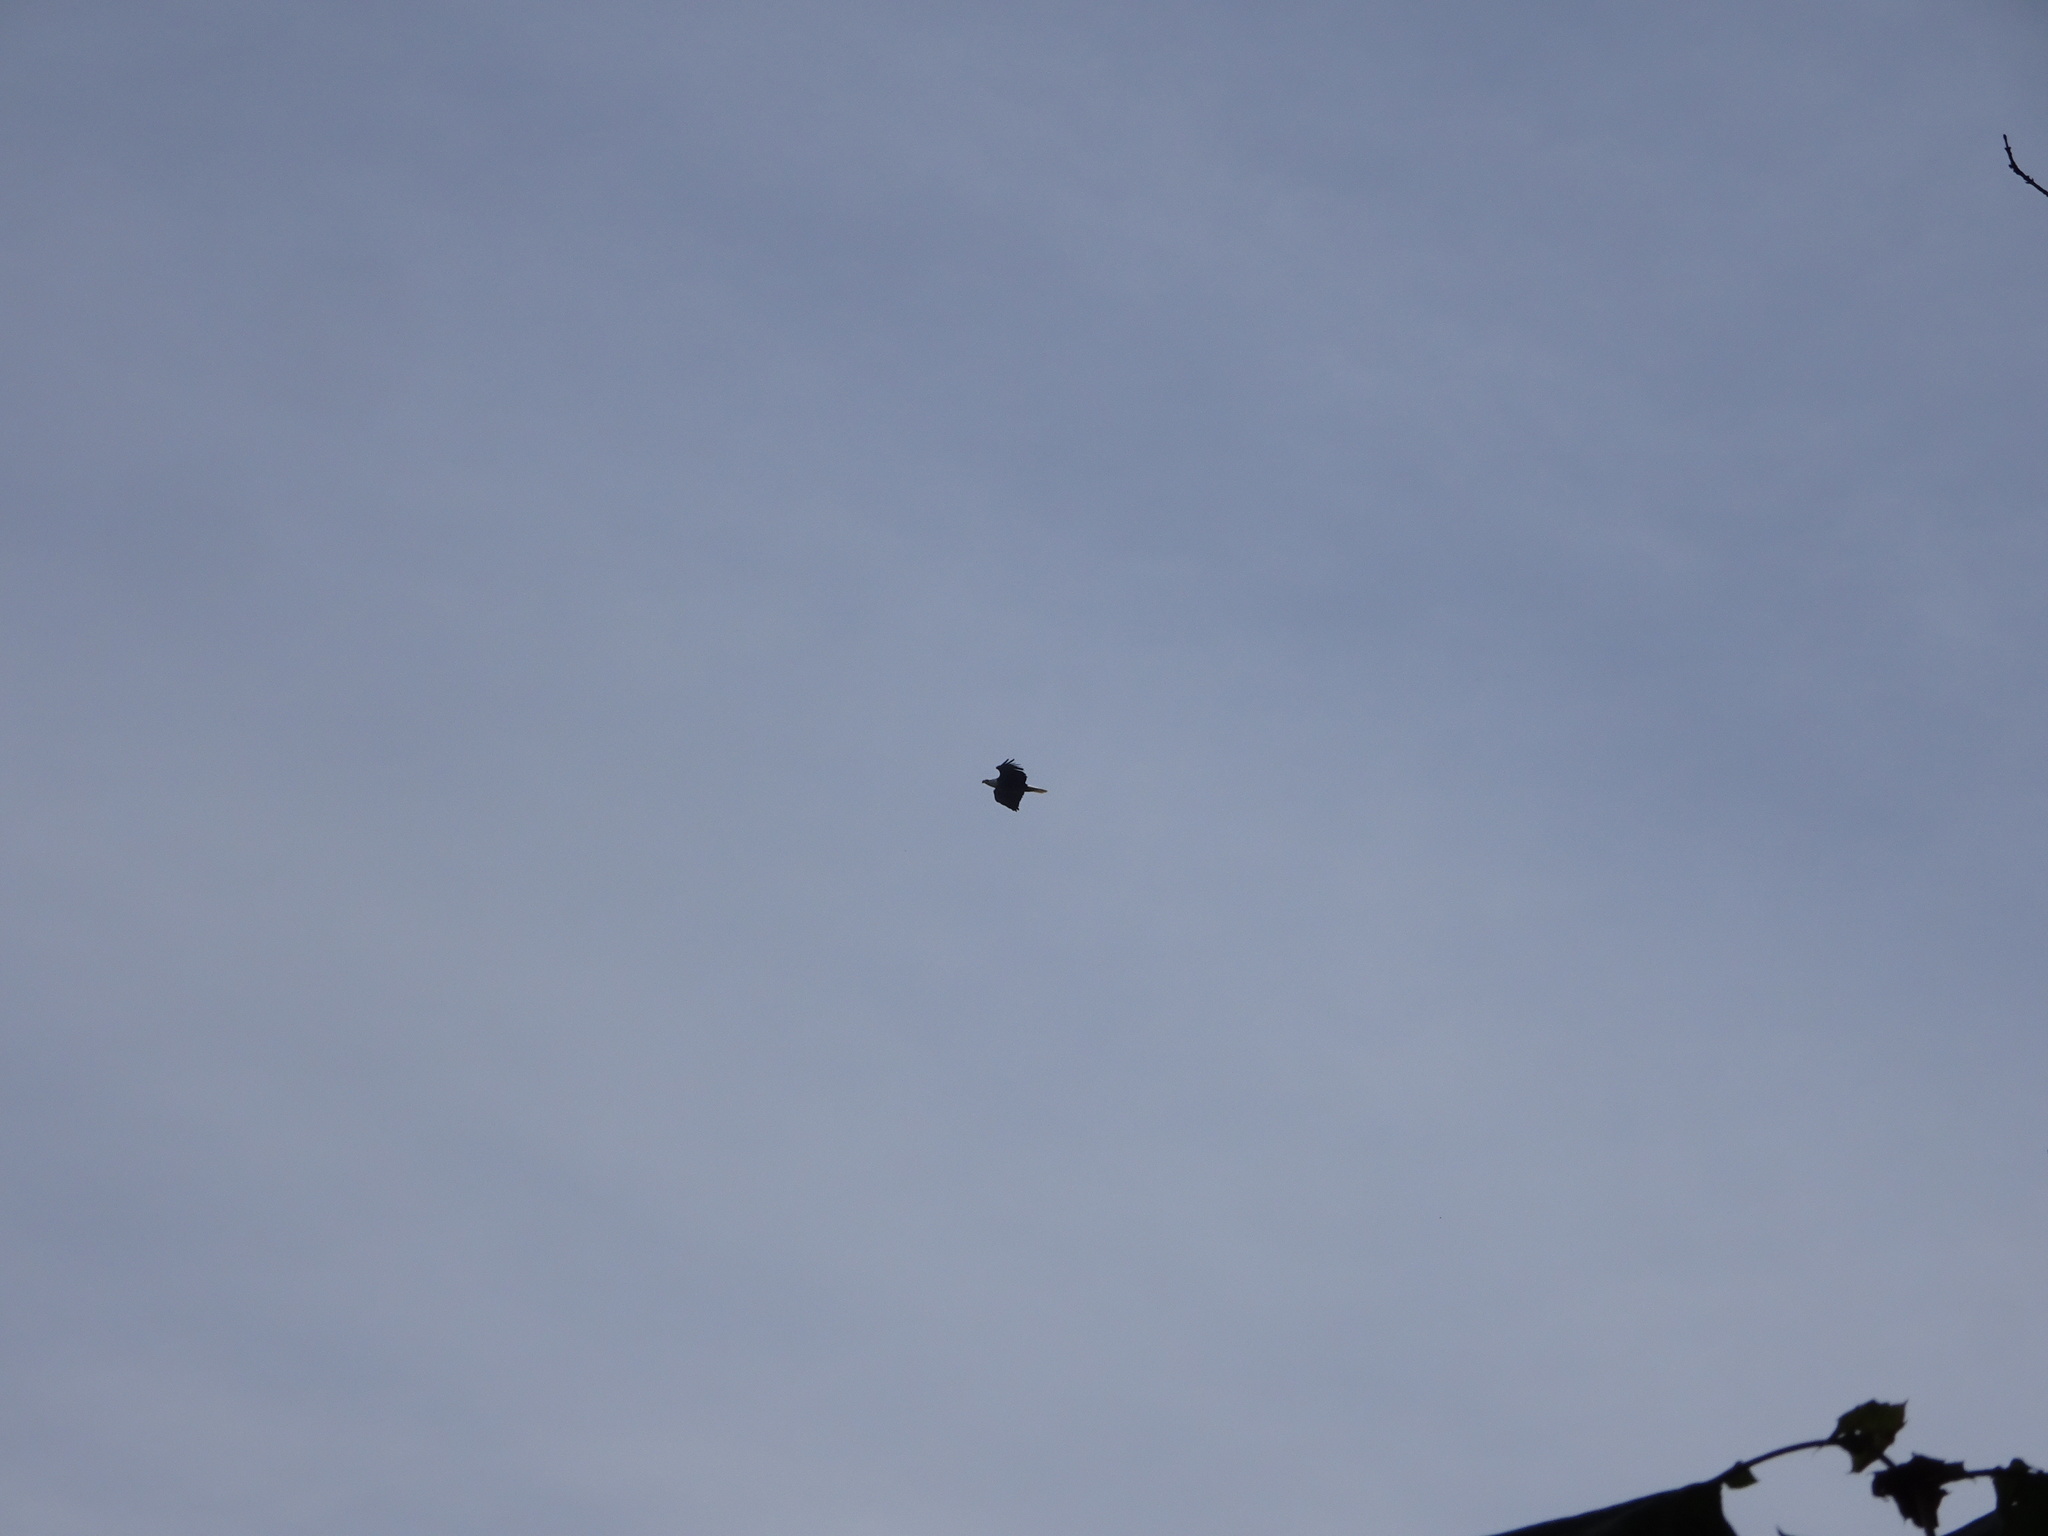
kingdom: Animalia
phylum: Chordata
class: Aves
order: Accipitriformes
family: Accipitridae
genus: Haliaeetus
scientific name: Haliaeetus leucocephalus
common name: Bald eagle
